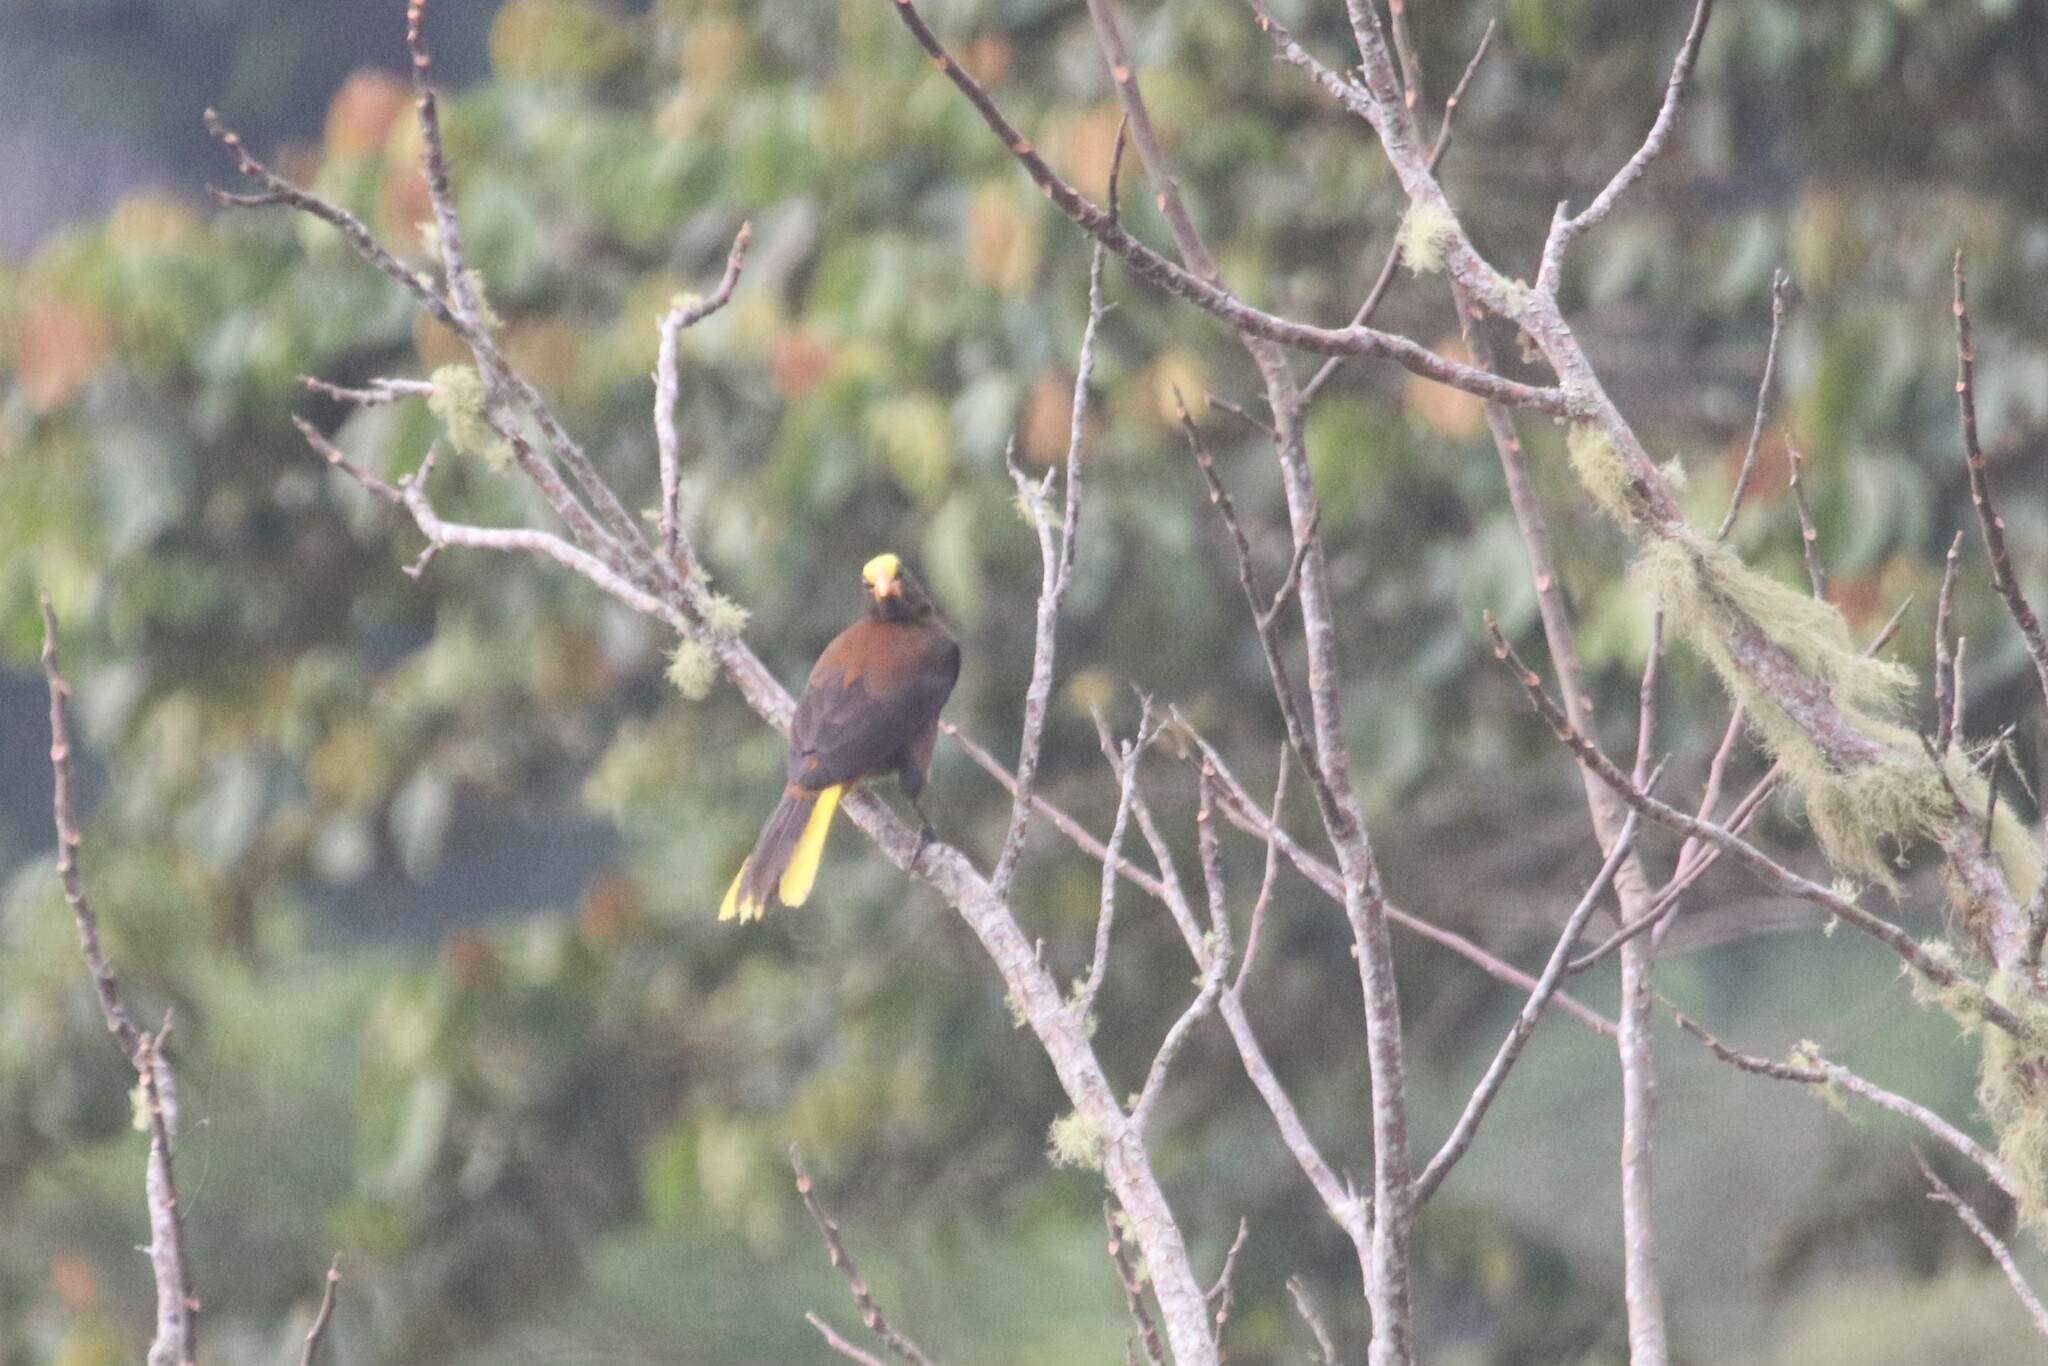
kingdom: Animalia
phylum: Chordata
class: Aves
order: Passeriformes
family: Icteridae
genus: Psarocolius
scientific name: Psarocolius angustifrons
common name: Russet-backed oropendola
